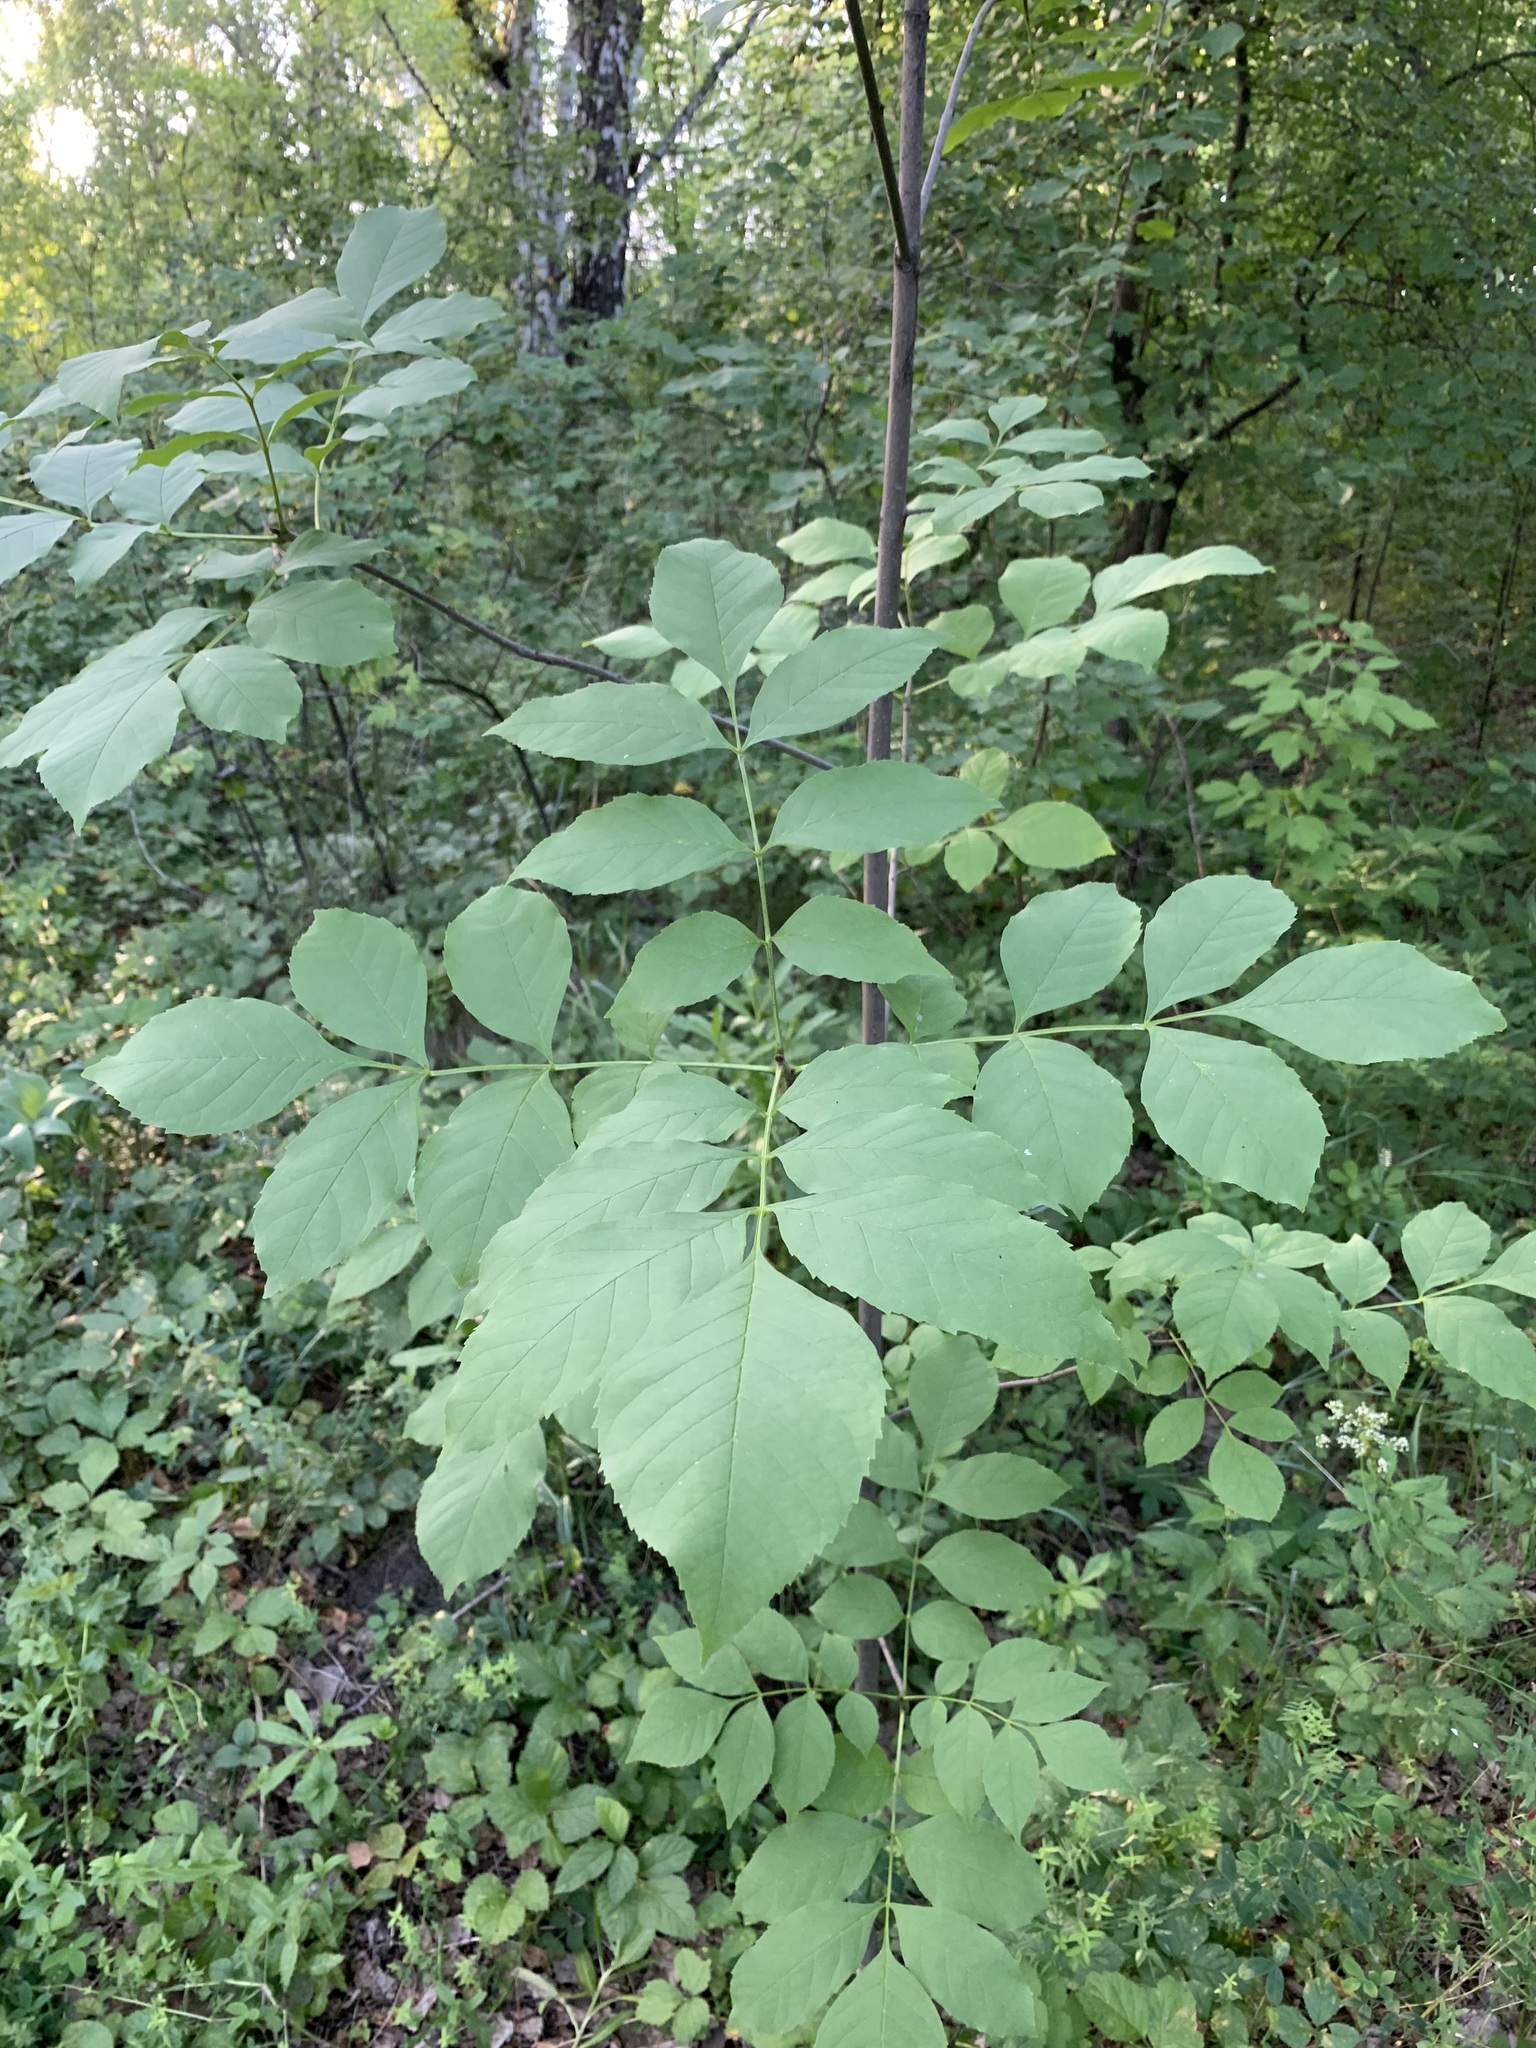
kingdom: Plantae
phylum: Tracheophyta
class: Magnoliopsida
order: Lamiales
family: Oleaceae
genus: Fraxinus
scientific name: Fraxinus pennsylvanica
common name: Green ash
